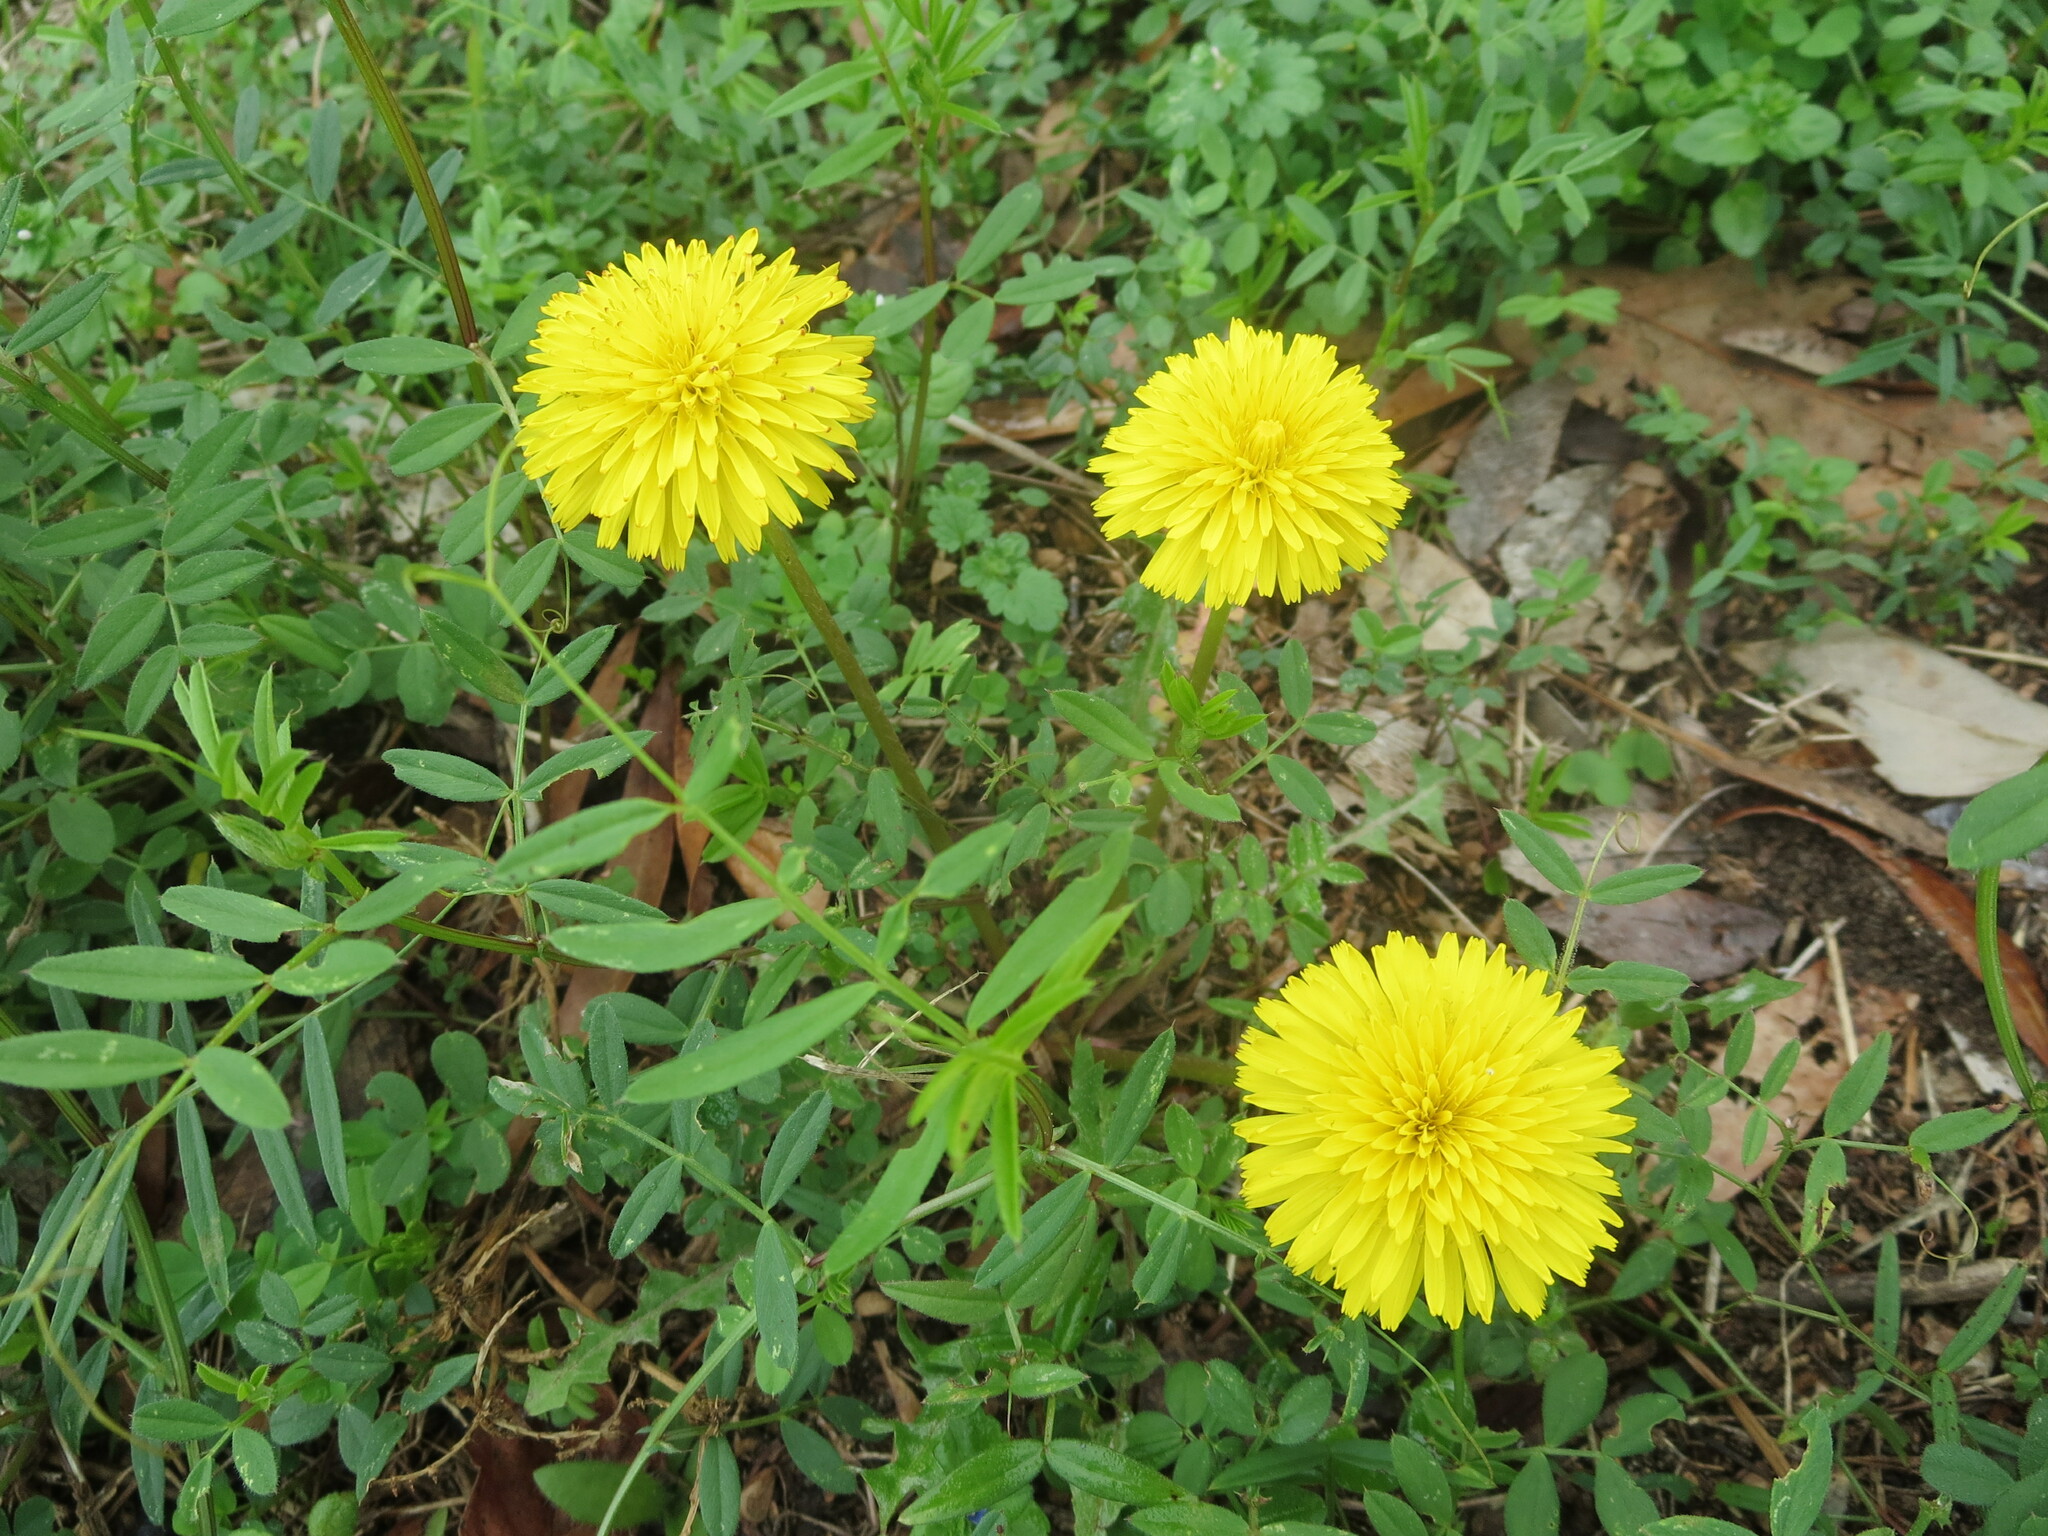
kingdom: Plantae
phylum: Tracheophyta
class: Magnoliopsida
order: Asterales
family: Asteraceae
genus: Taraxacum
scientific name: Taraxacum
